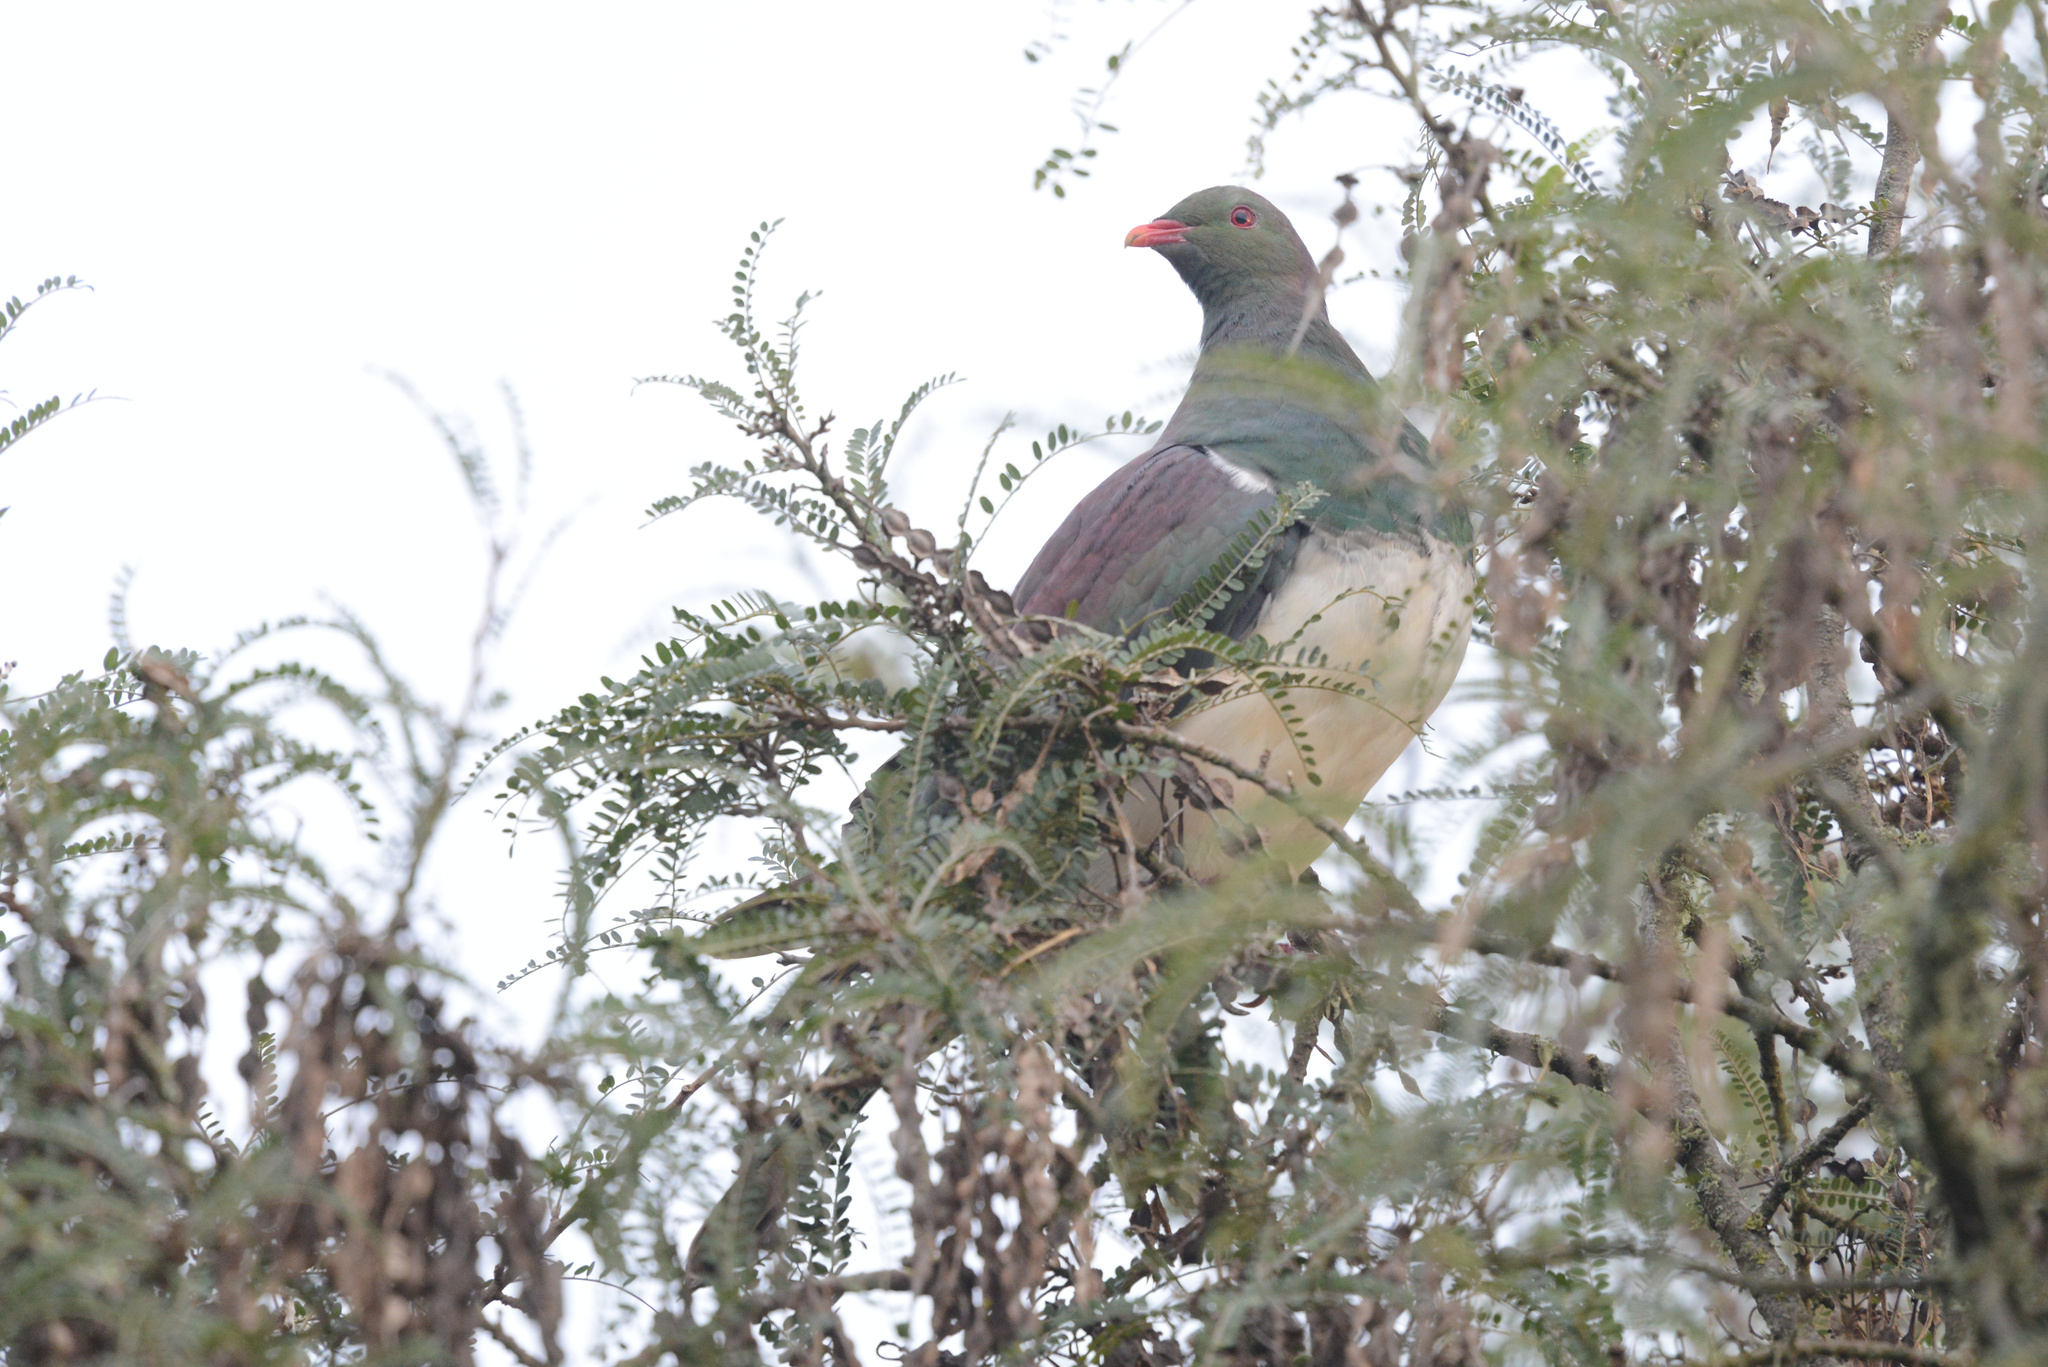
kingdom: Animalia
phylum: Chordata
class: Aves
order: Columbiformes
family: Columbidae
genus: Hemiphaga
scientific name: Hemiphaga novaeseelandiae
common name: New zealand pigeon
